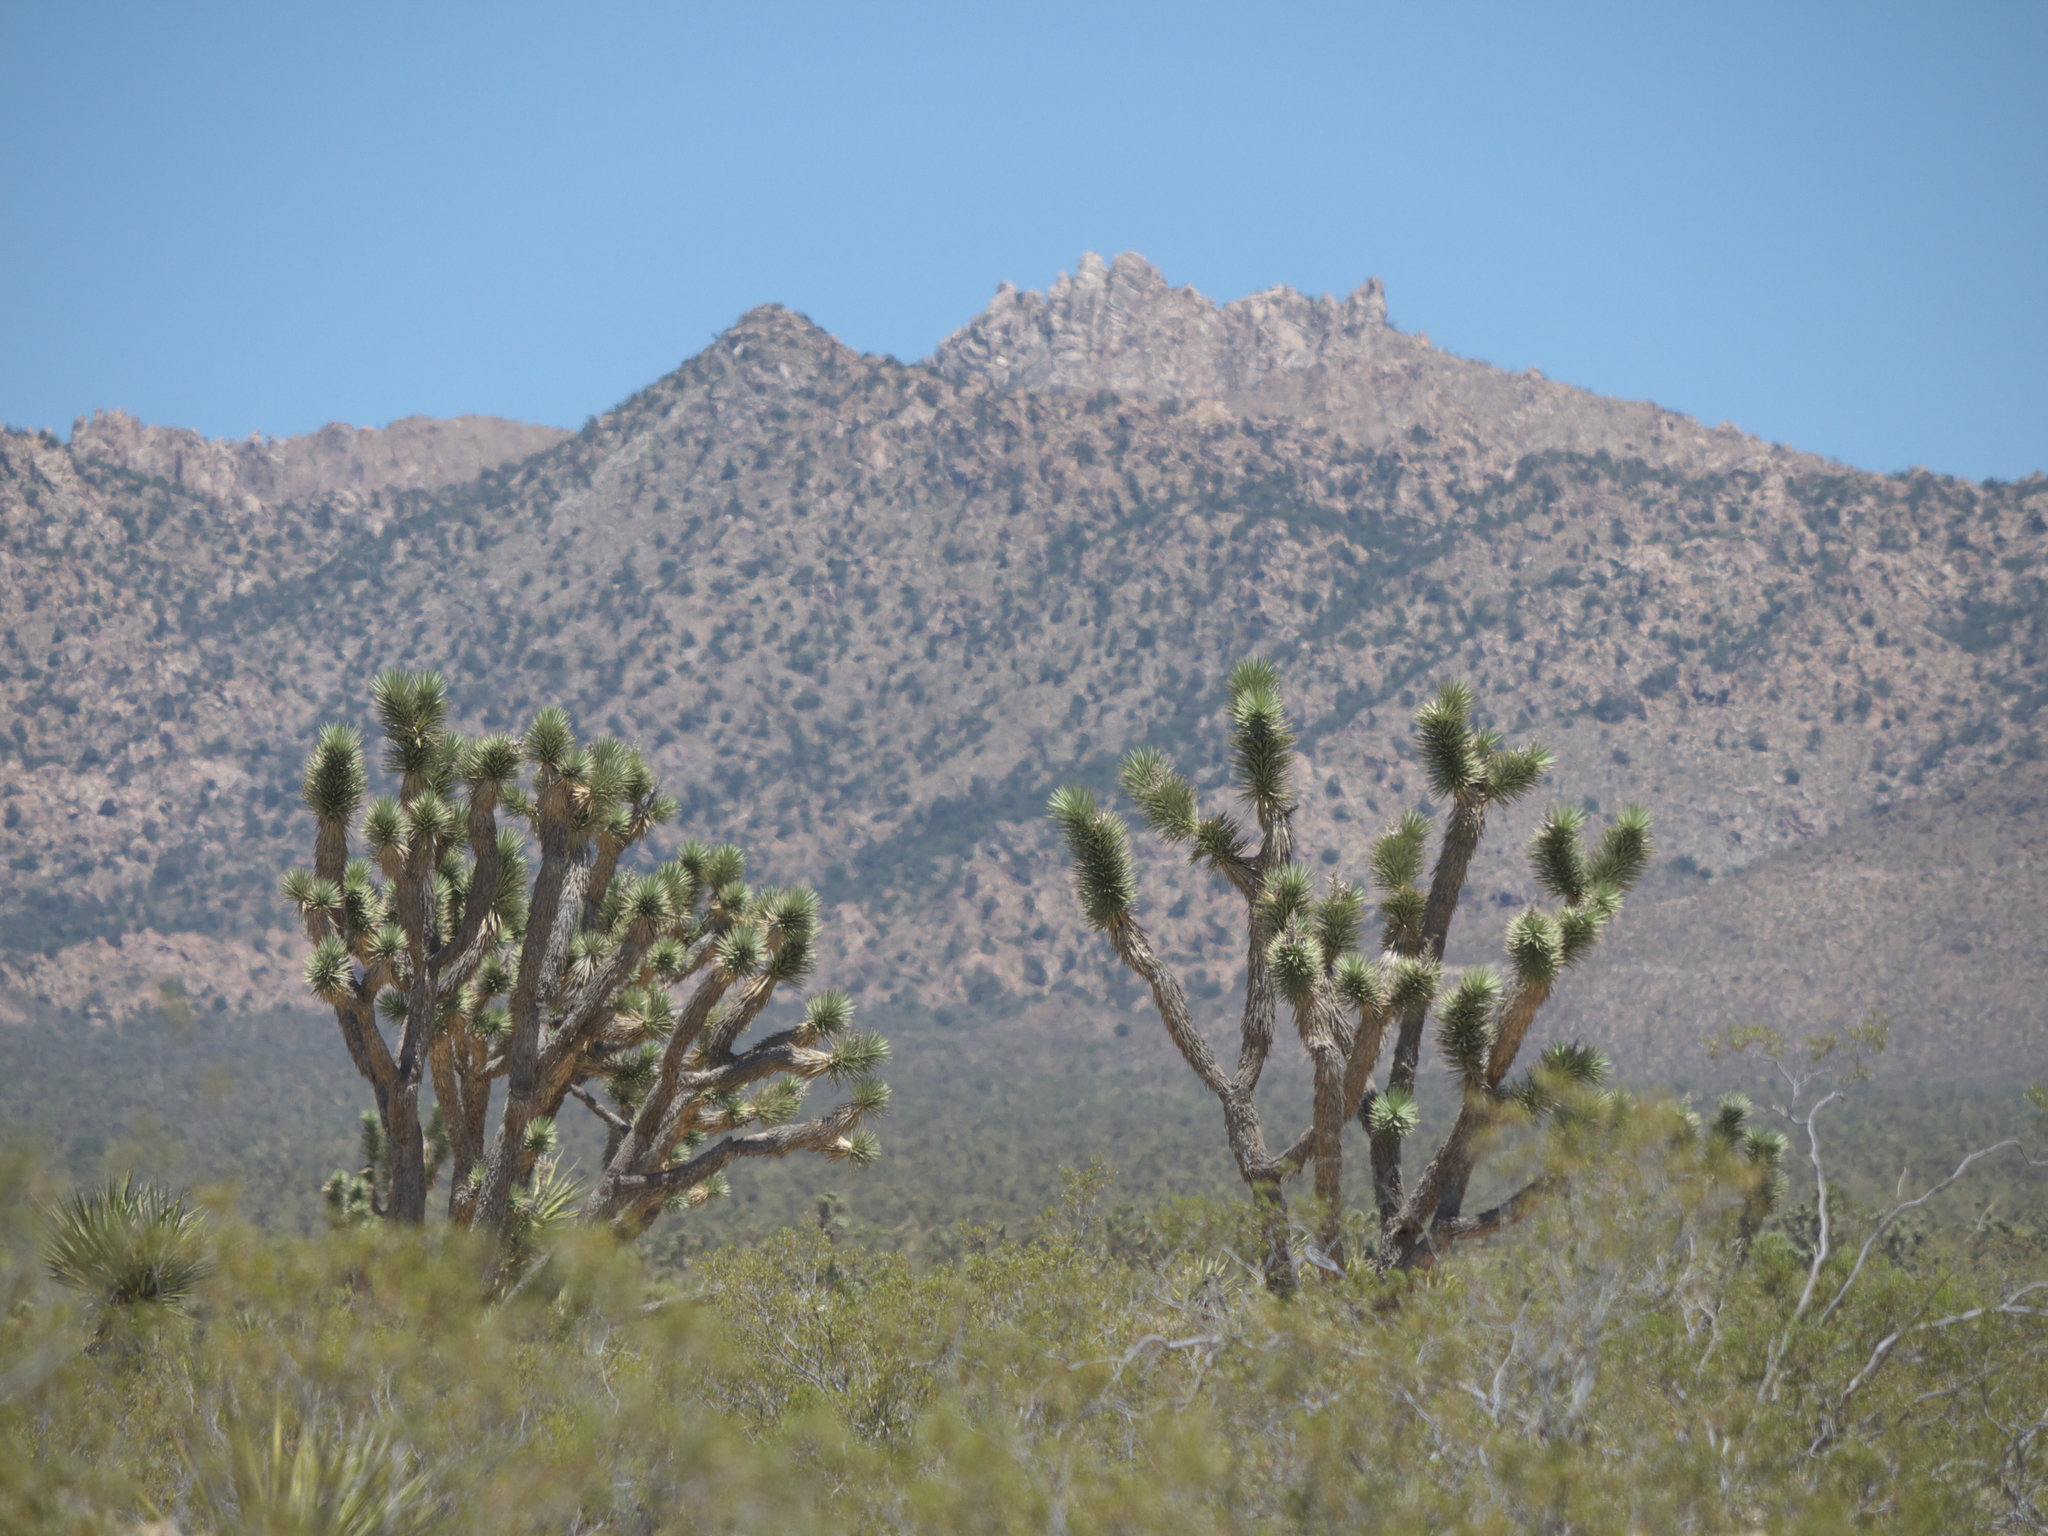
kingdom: Plantae
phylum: Tracheophyta
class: Liliopsida
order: Asparagales
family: Asparagaceae
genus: Yucca
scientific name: Yucca brevifolia
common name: Joshua tree
